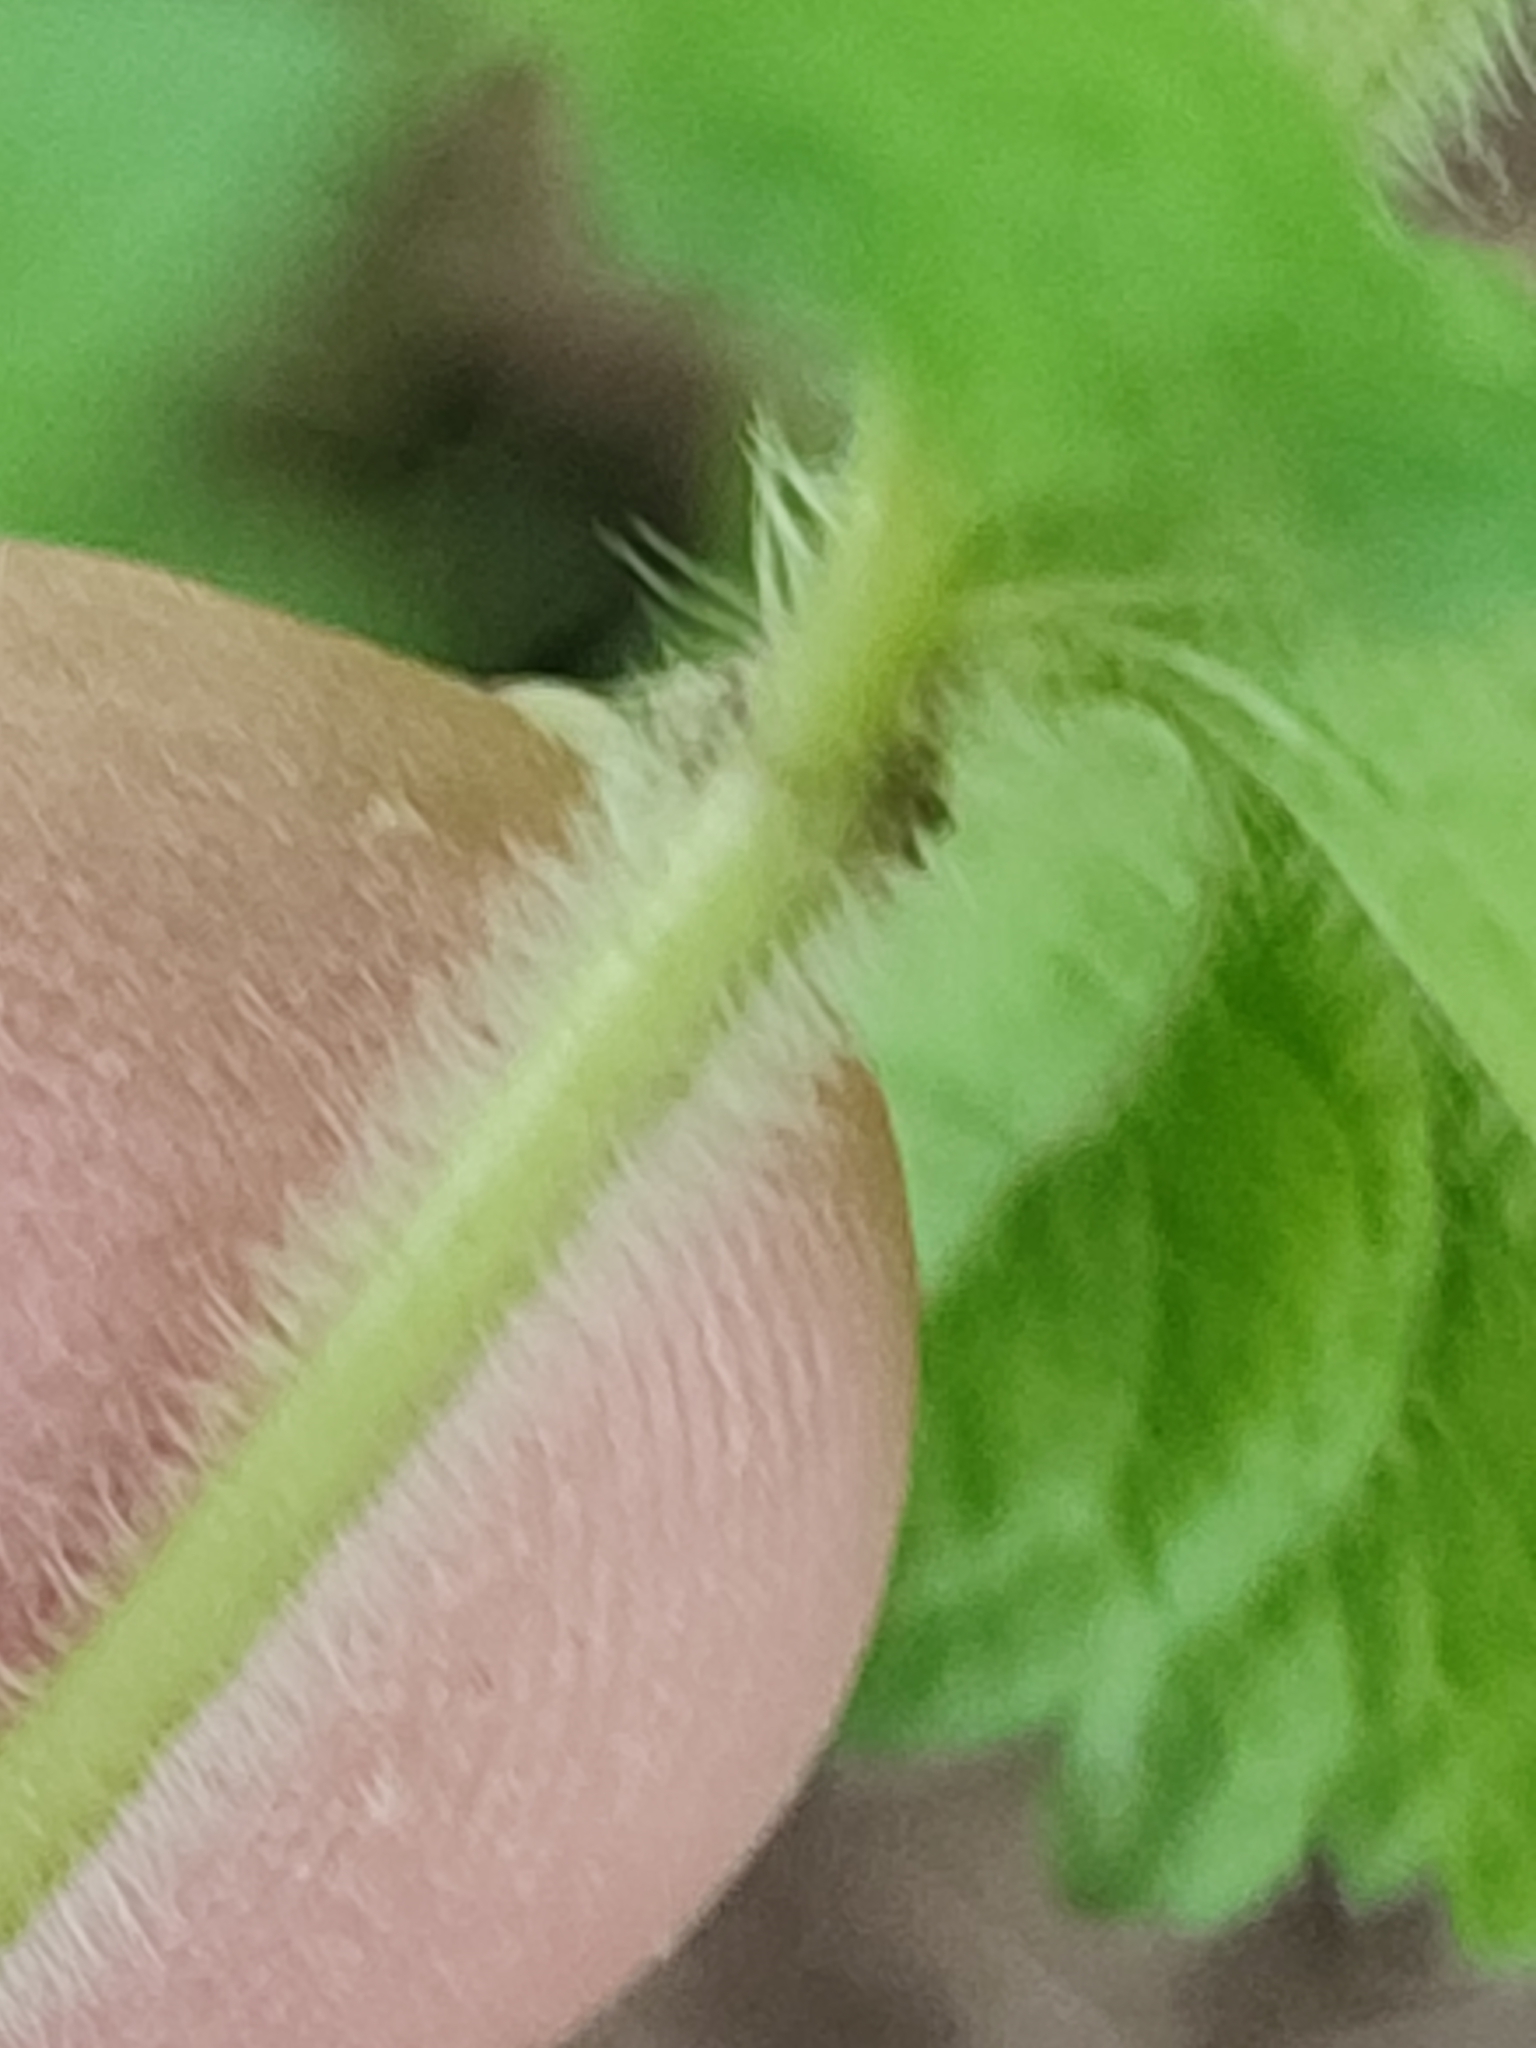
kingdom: Plantae
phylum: Tracheophyta
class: Magnoliopsida
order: Lamiales
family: Plantaginaceae
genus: Veronica
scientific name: Veronica chamaedrys
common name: Germander speedwell
